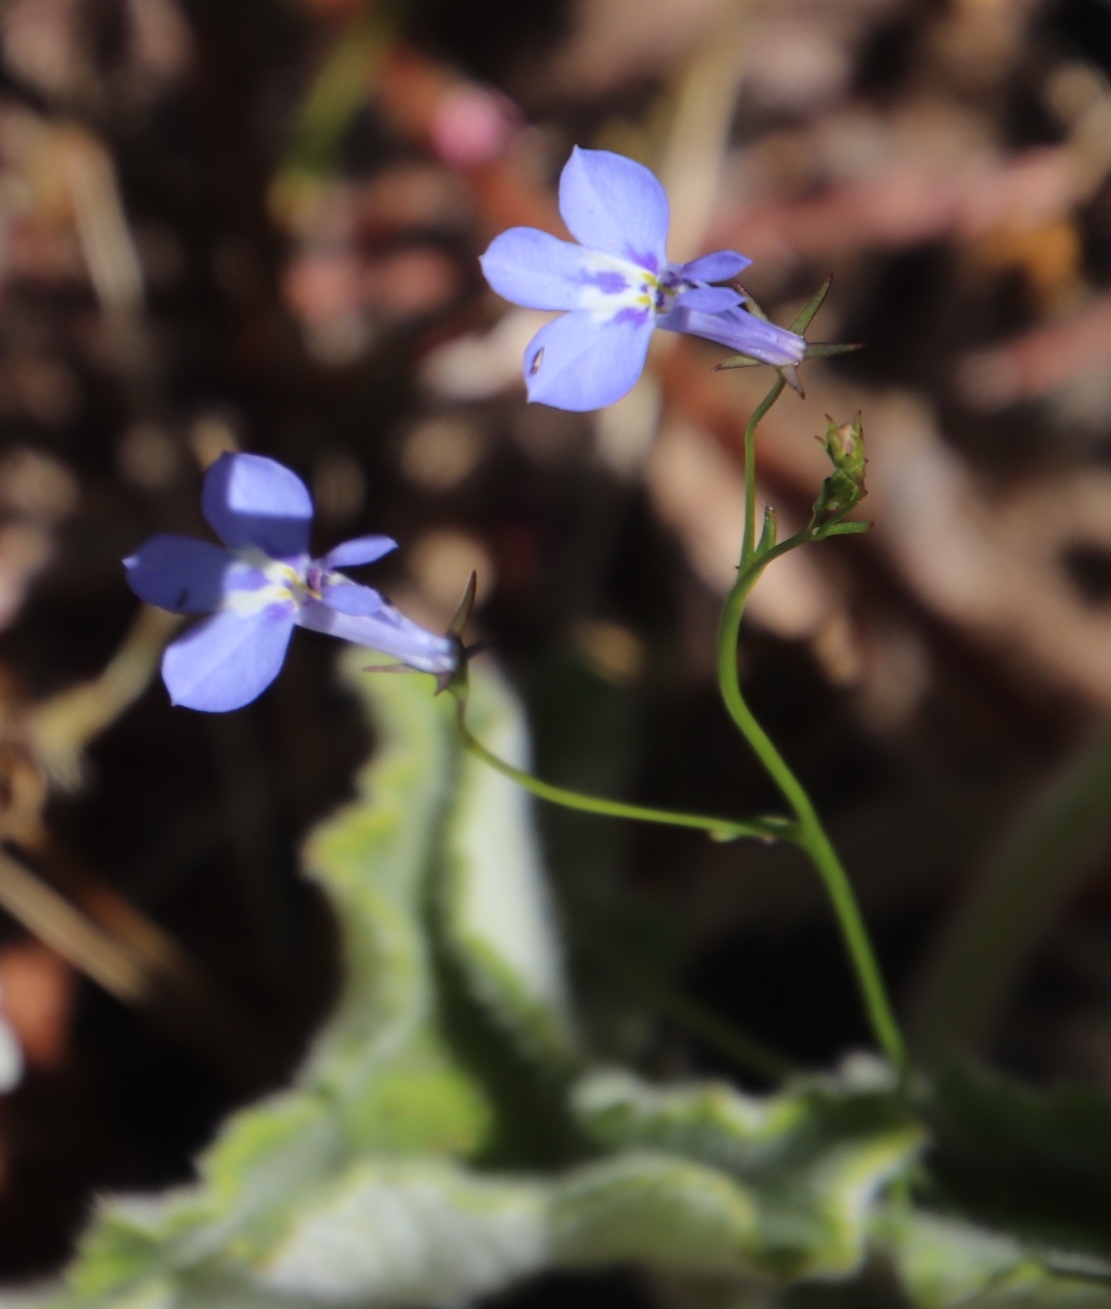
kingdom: Plantae
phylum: Tracheophyta
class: Magnoliopsida
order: Asterales
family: Campanulaceae
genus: Lobelia
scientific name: Lobelia erinus
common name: Edging lobelia
